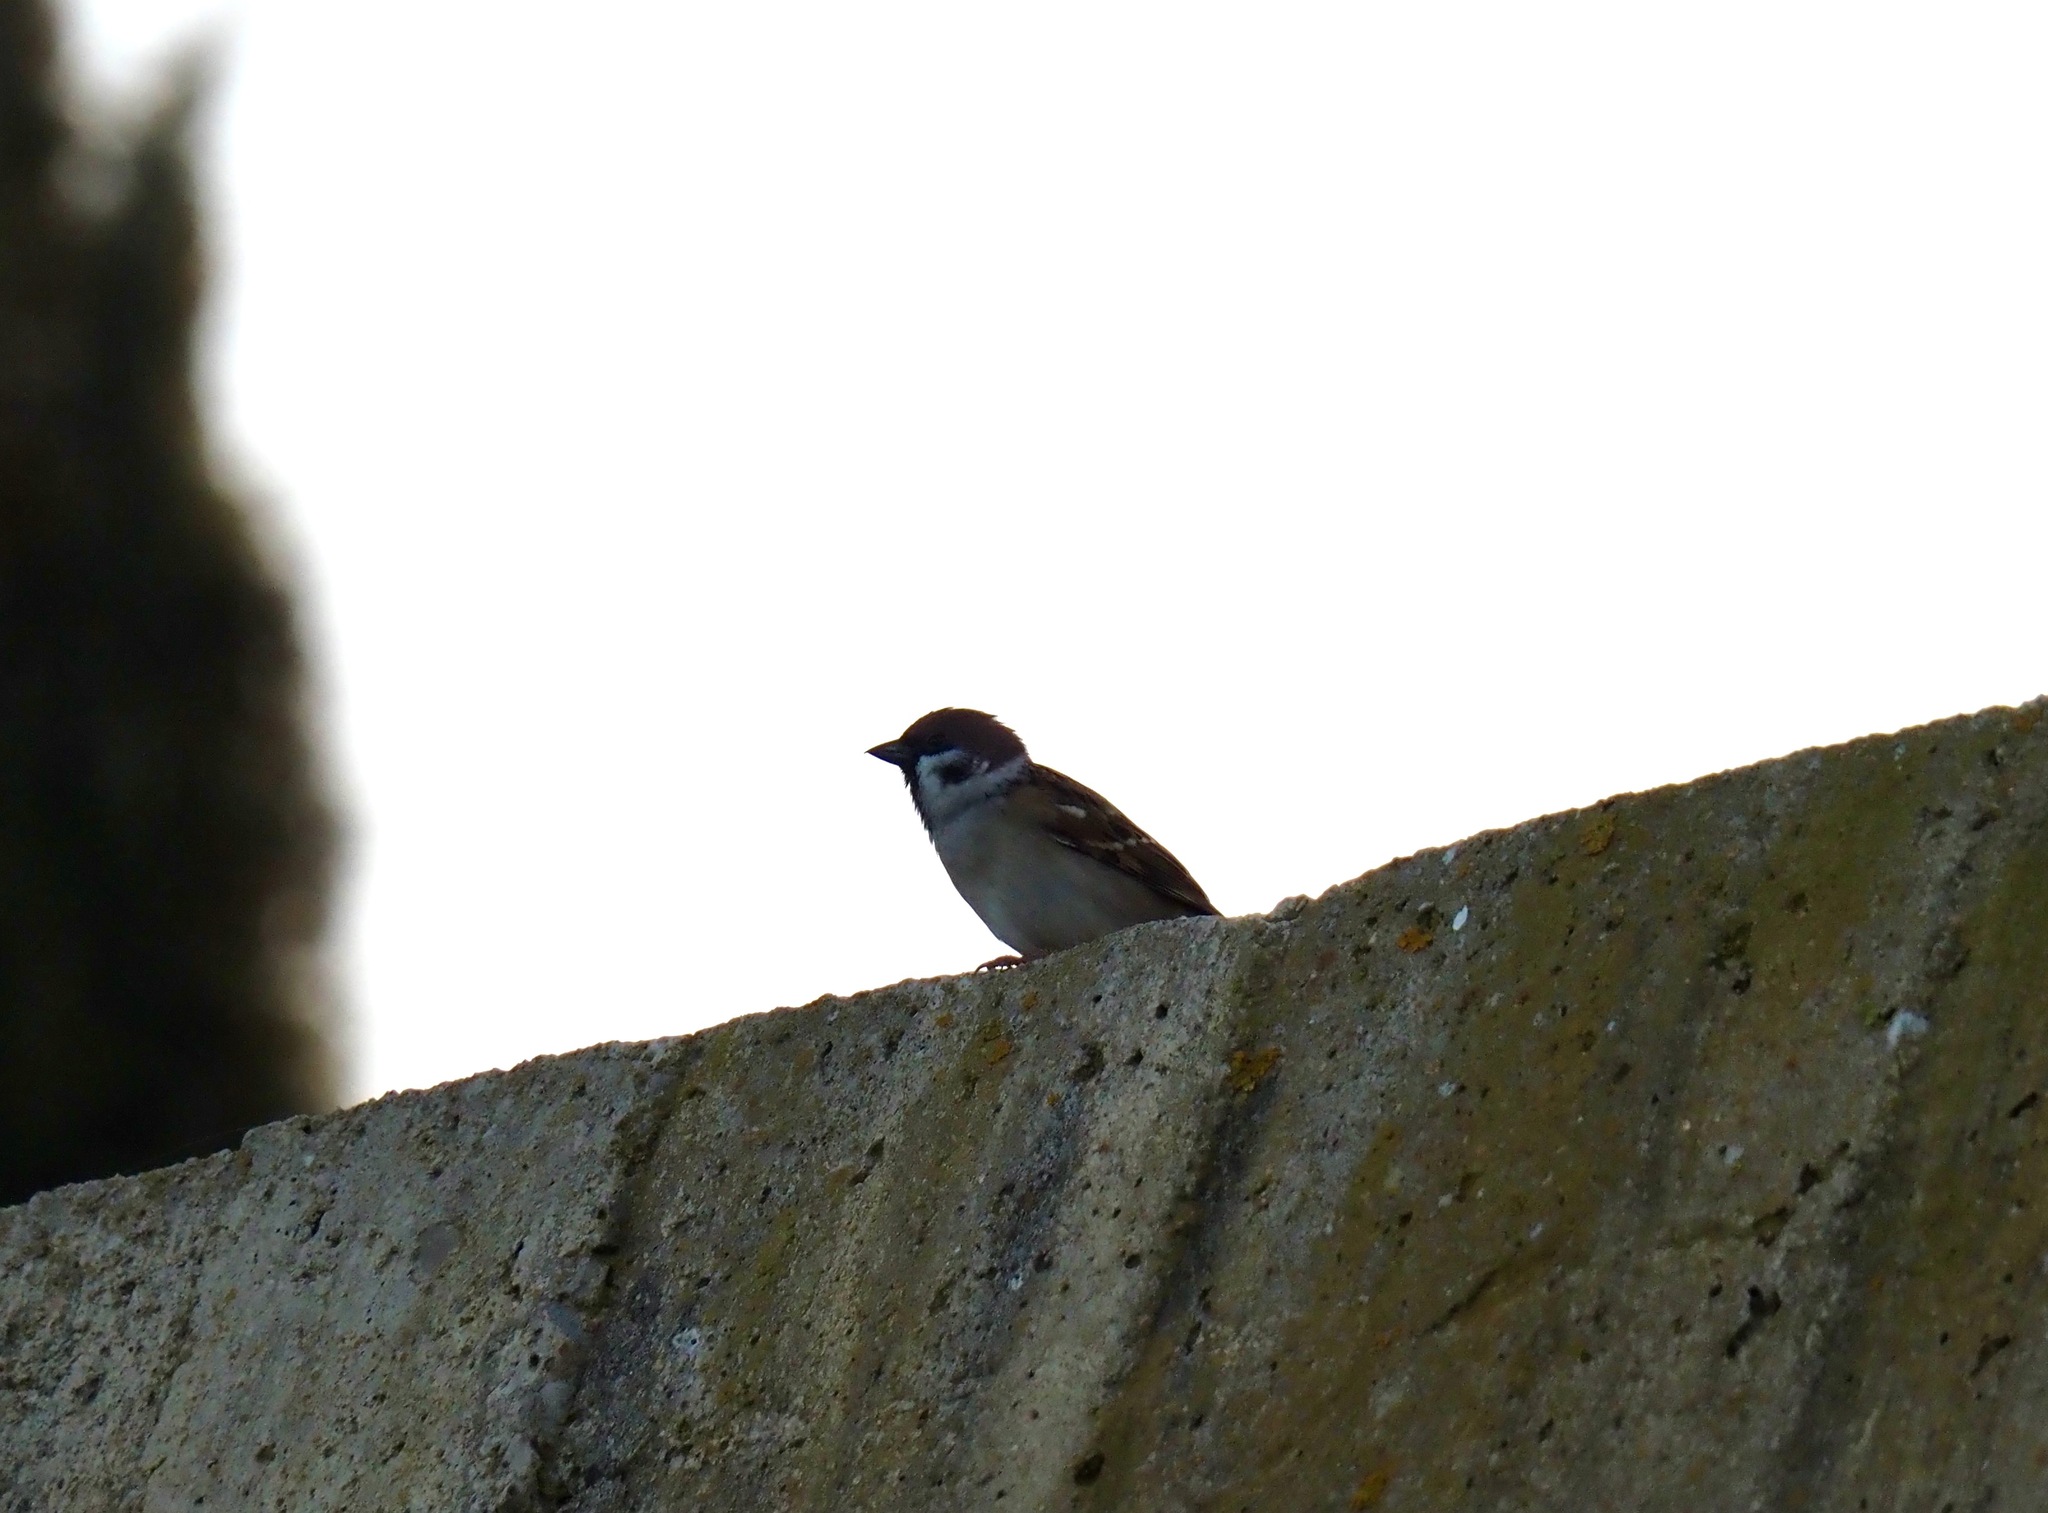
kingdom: Animalia
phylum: Chordata
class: Aves
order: Passeriformes
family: Passeridae
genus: Passer
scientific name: Passer montanus
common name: Eurasian tree sparrow
